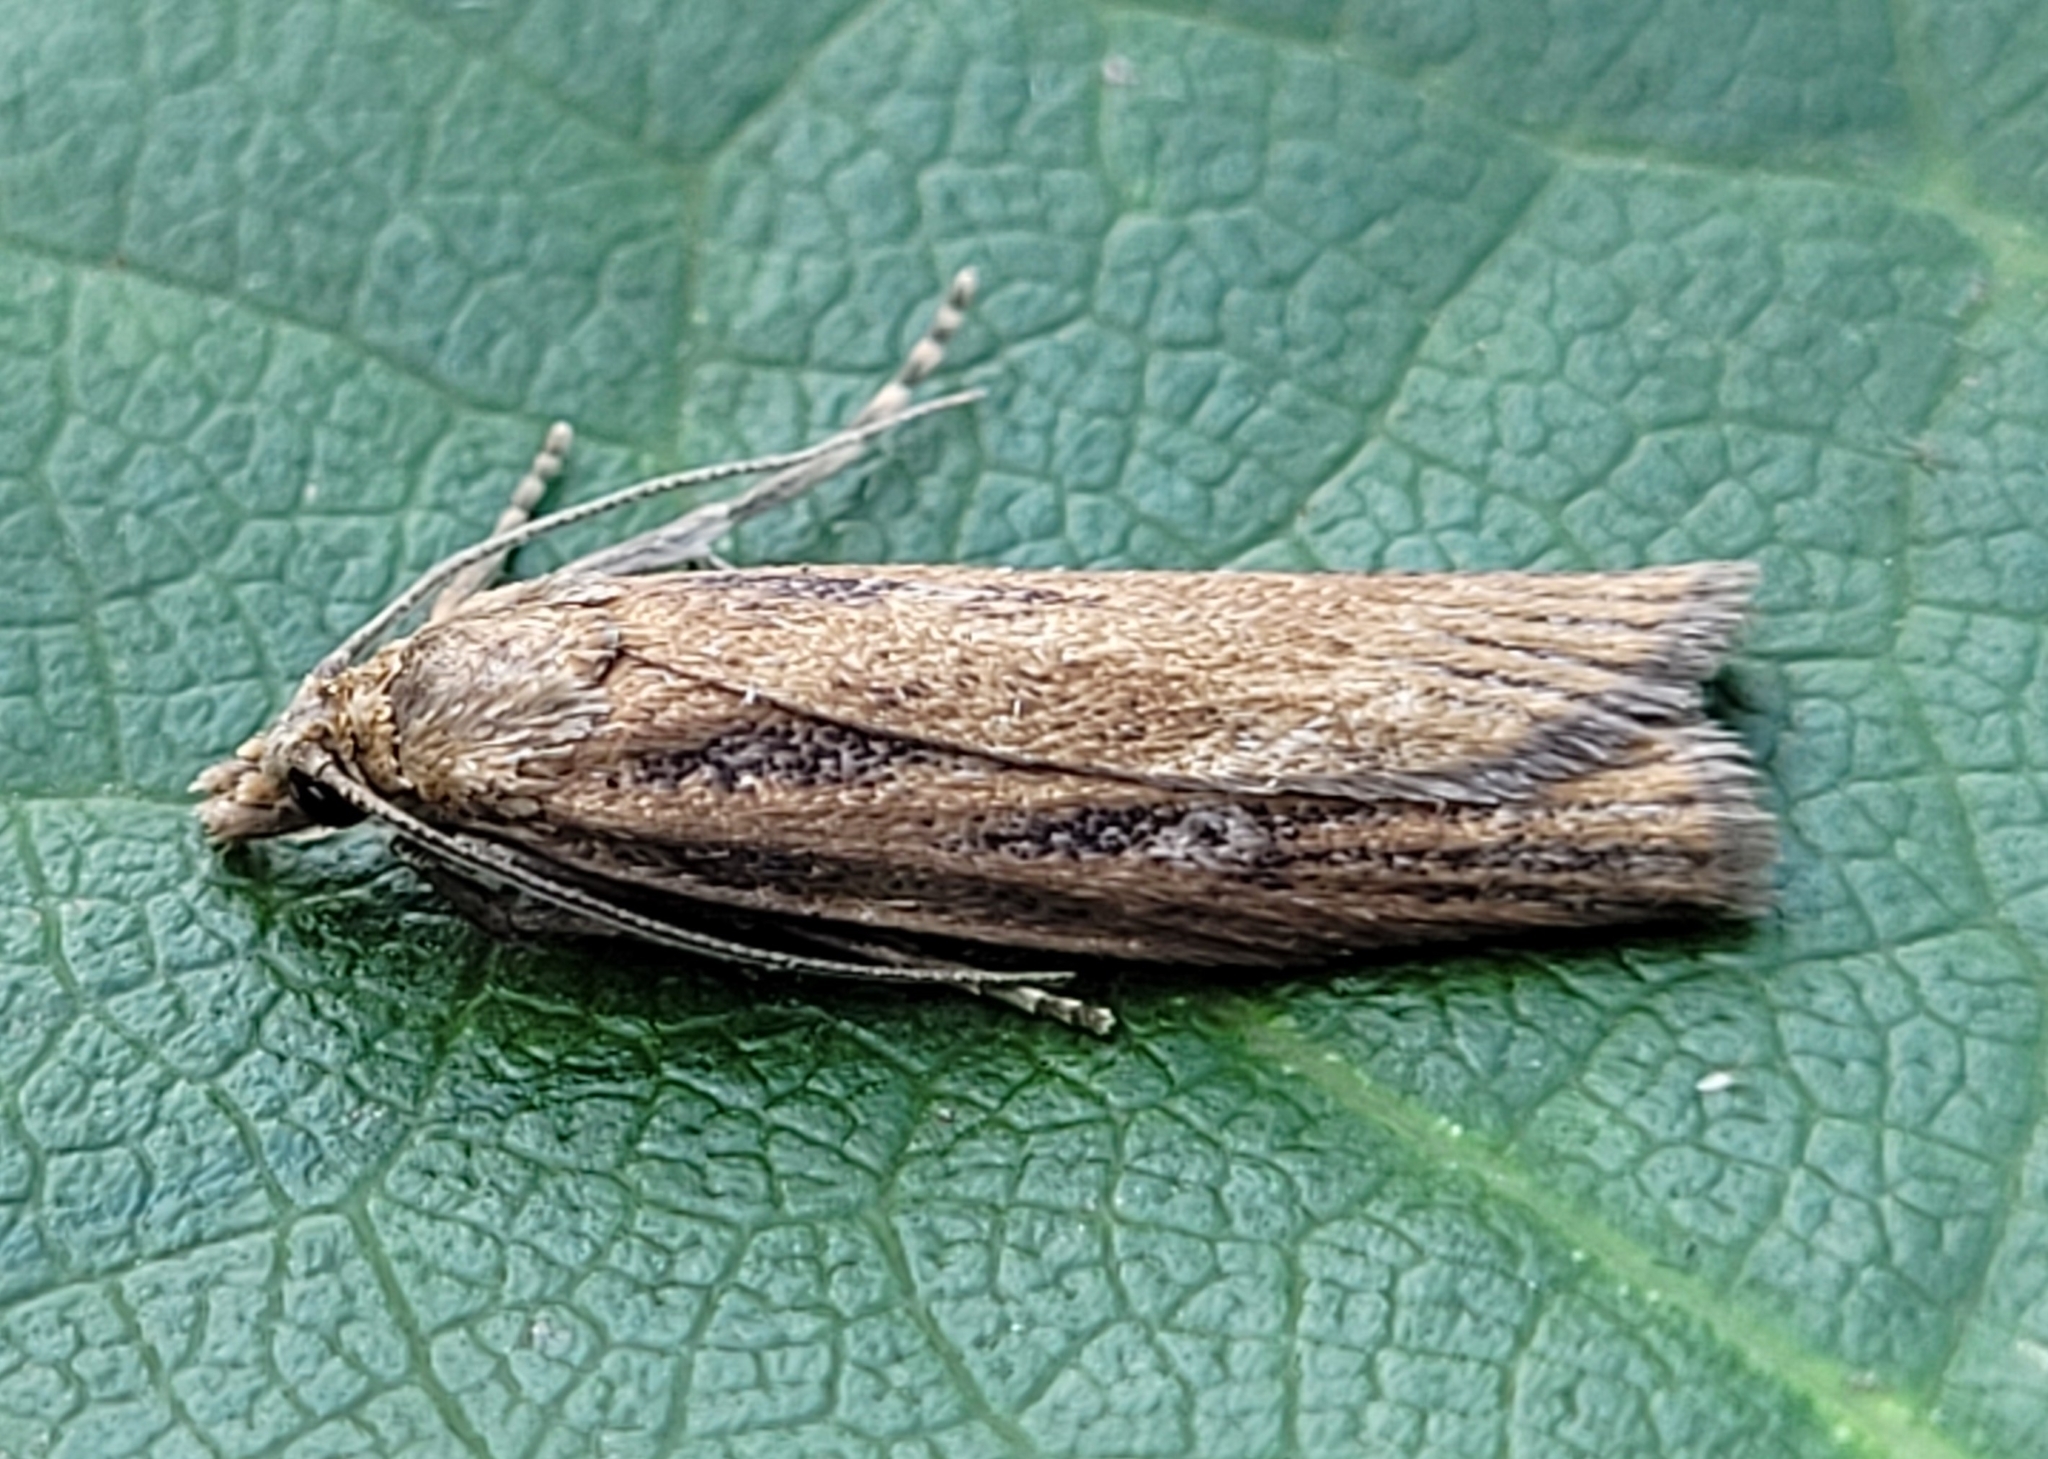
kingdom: Animalia
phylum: Arthropoda
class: Insecta
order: Lepidoptera
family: Crambidae
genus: Occidentalia
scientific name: Occidentalia comptulatalis
